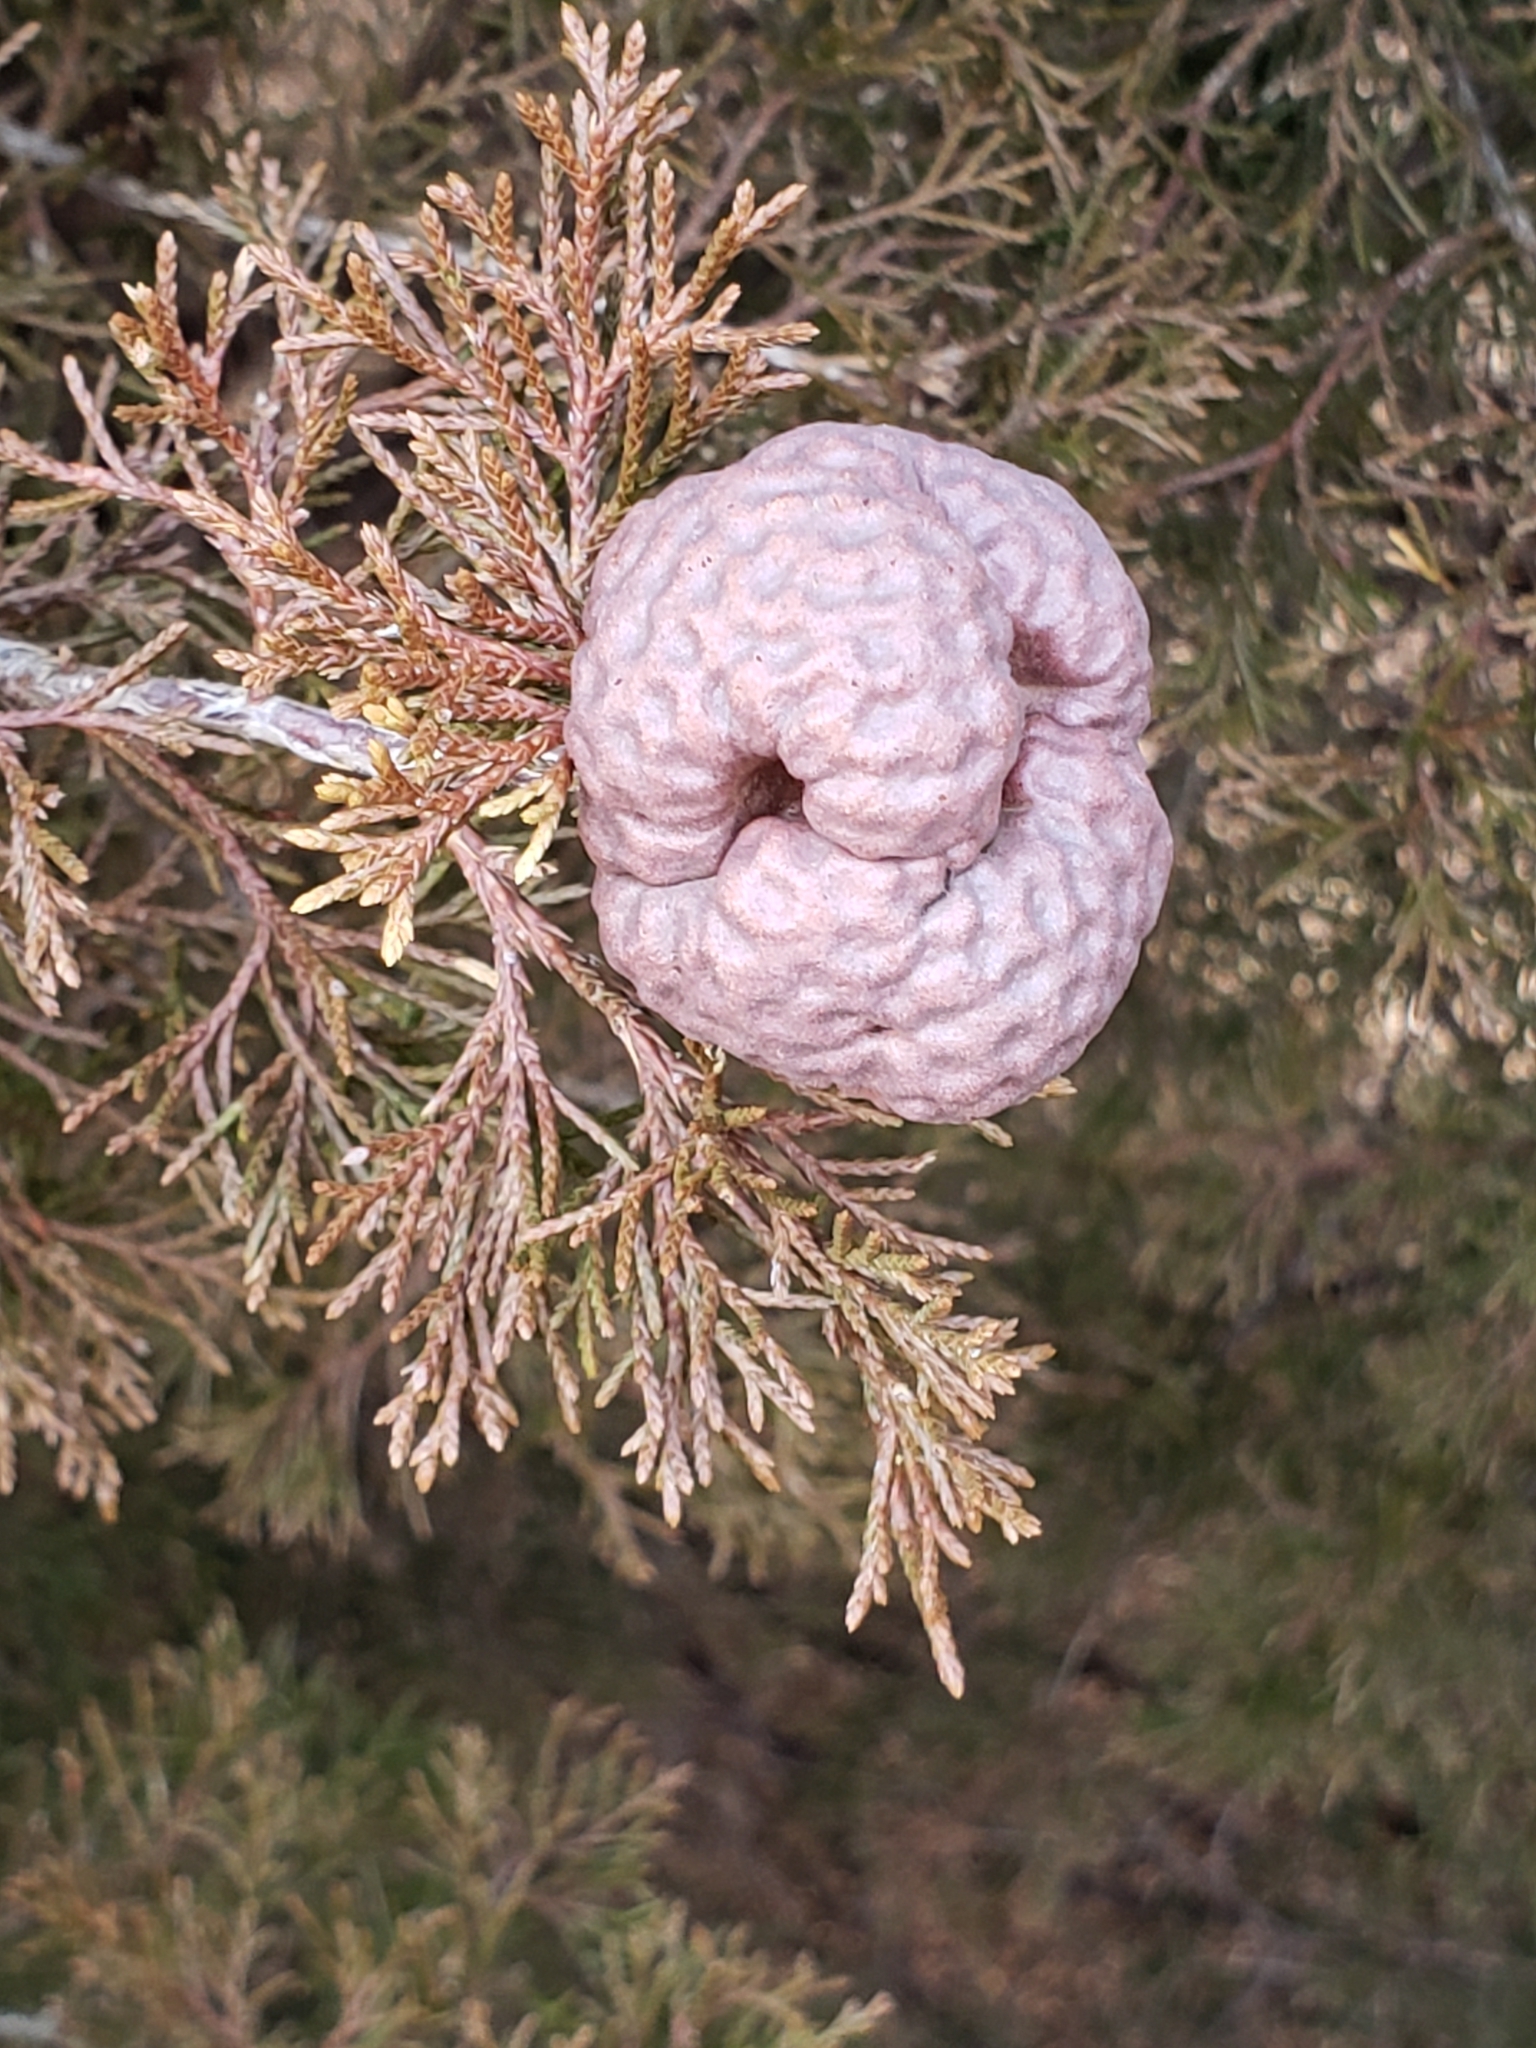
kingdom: Fungi
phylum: Basidiomycota
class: Pucciniomycetes
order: Pucciniales
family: Gymnosporangiaceae
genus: Gymnosporangium
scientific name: Gymnosporangium juniperi-virginianae
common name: Juniper-apple rust
